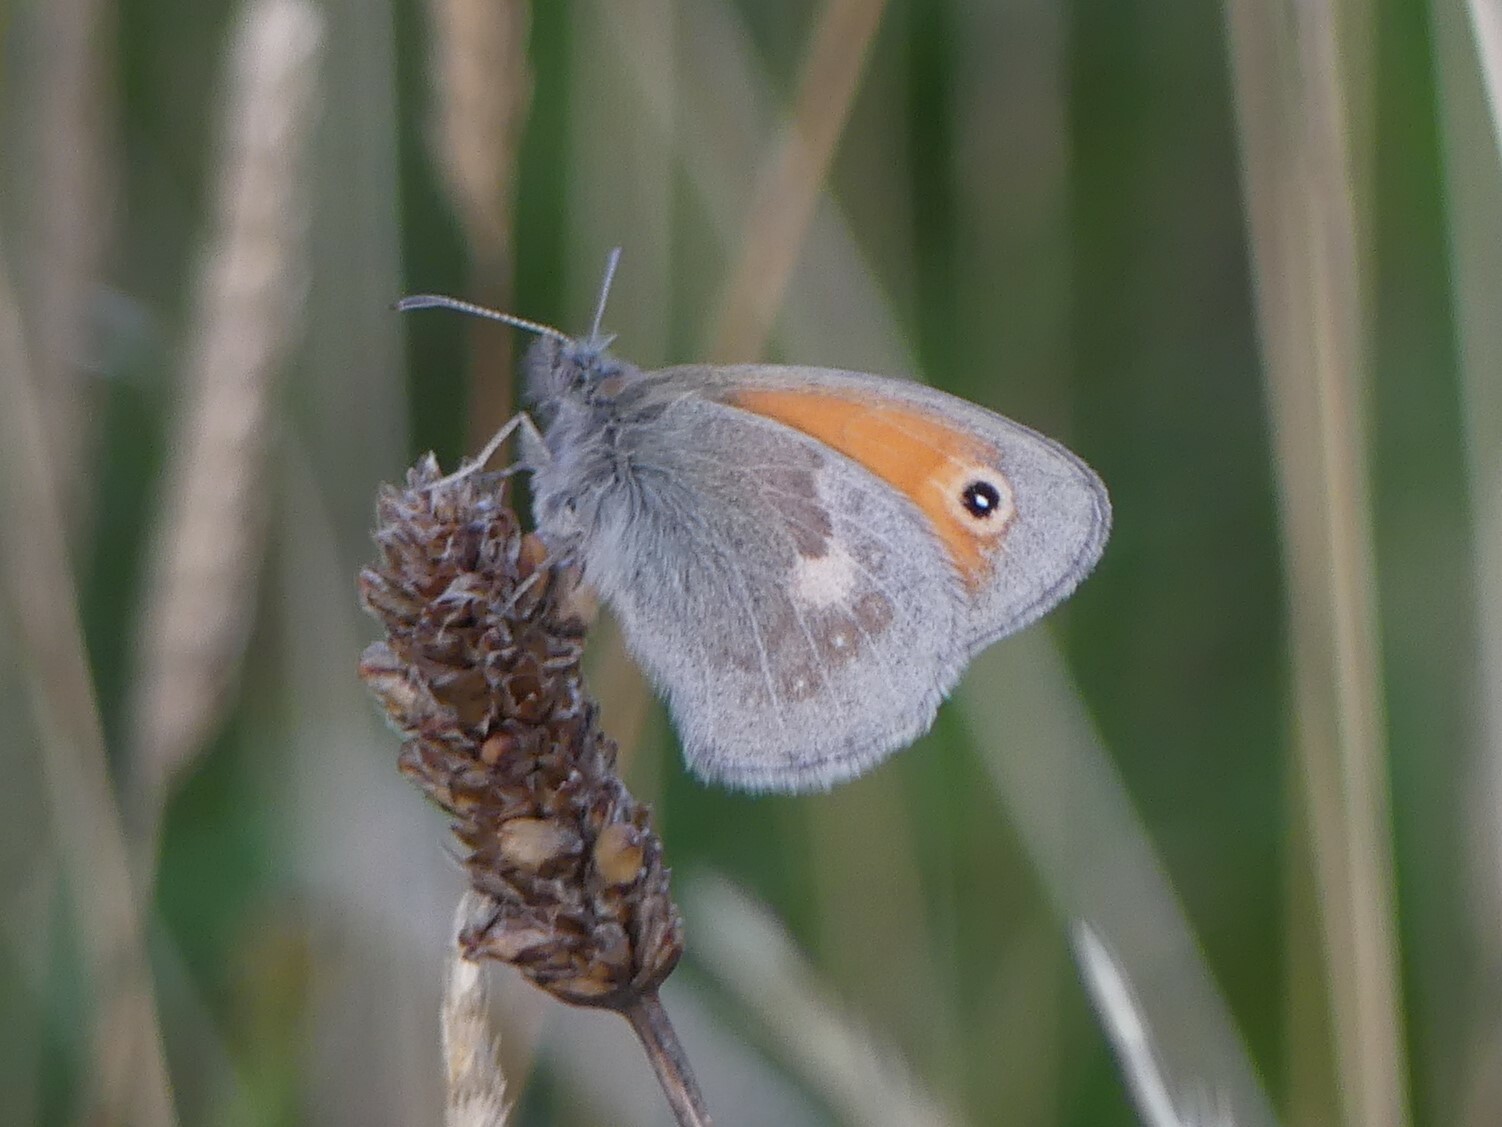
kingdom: Animalia
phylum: Arthropoda
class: Insecta
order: Lepidoptera
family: Nymphalidae
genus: Coenonympha
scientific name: Coenonympha pamphilus
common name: Small heath
